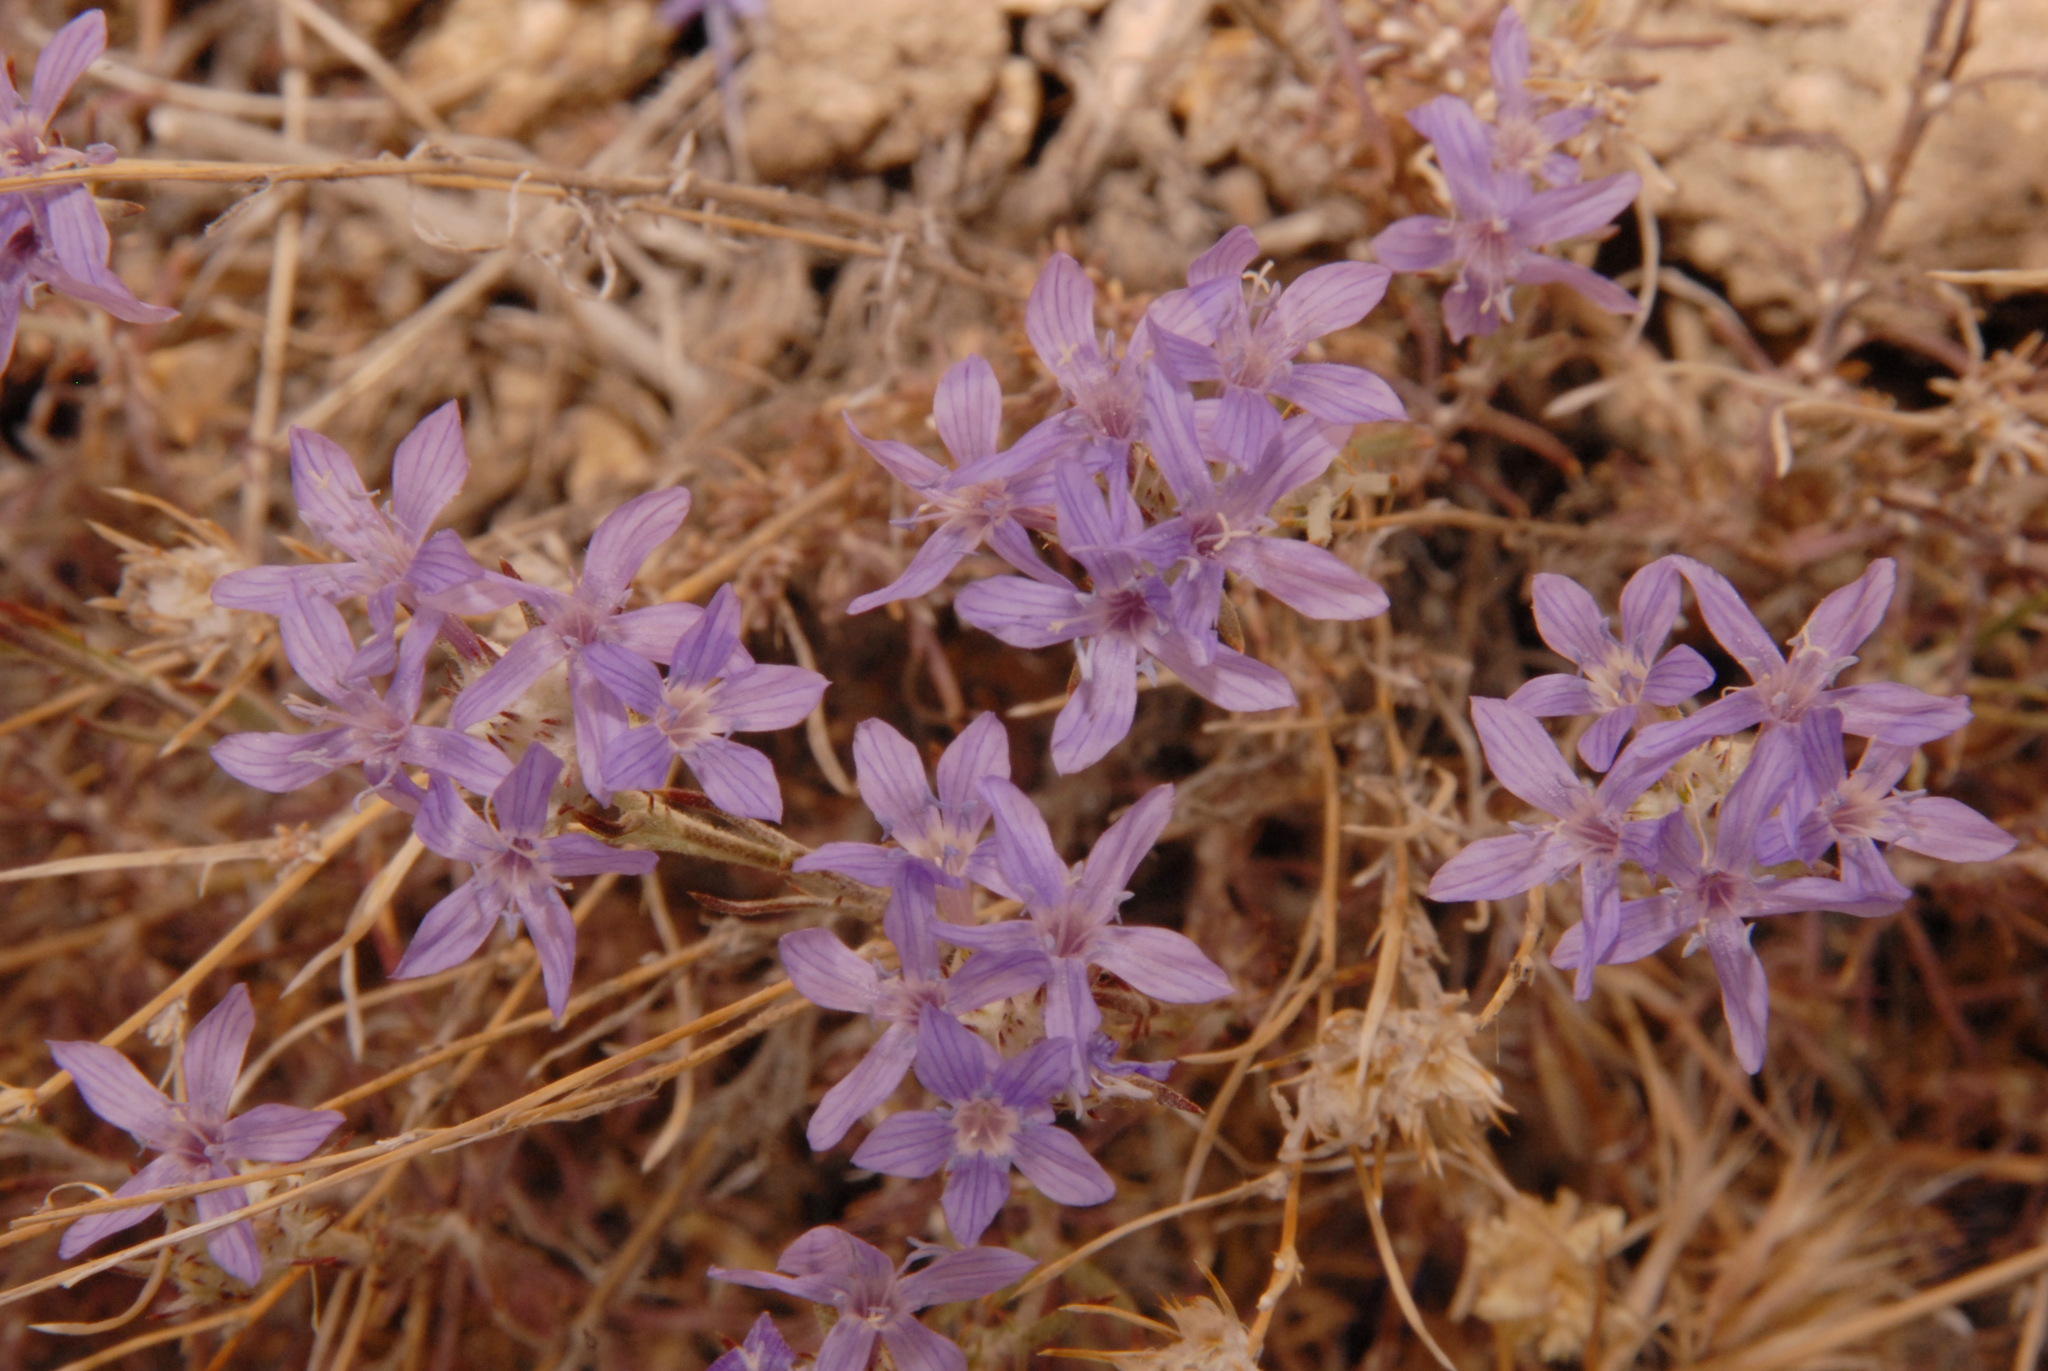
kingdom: Plantae
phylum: Tracheophyta
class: Magnoliopsida
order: Ericales
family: Polemoniaceae
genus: Eriastrum
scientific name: Eriastrum densifolium
